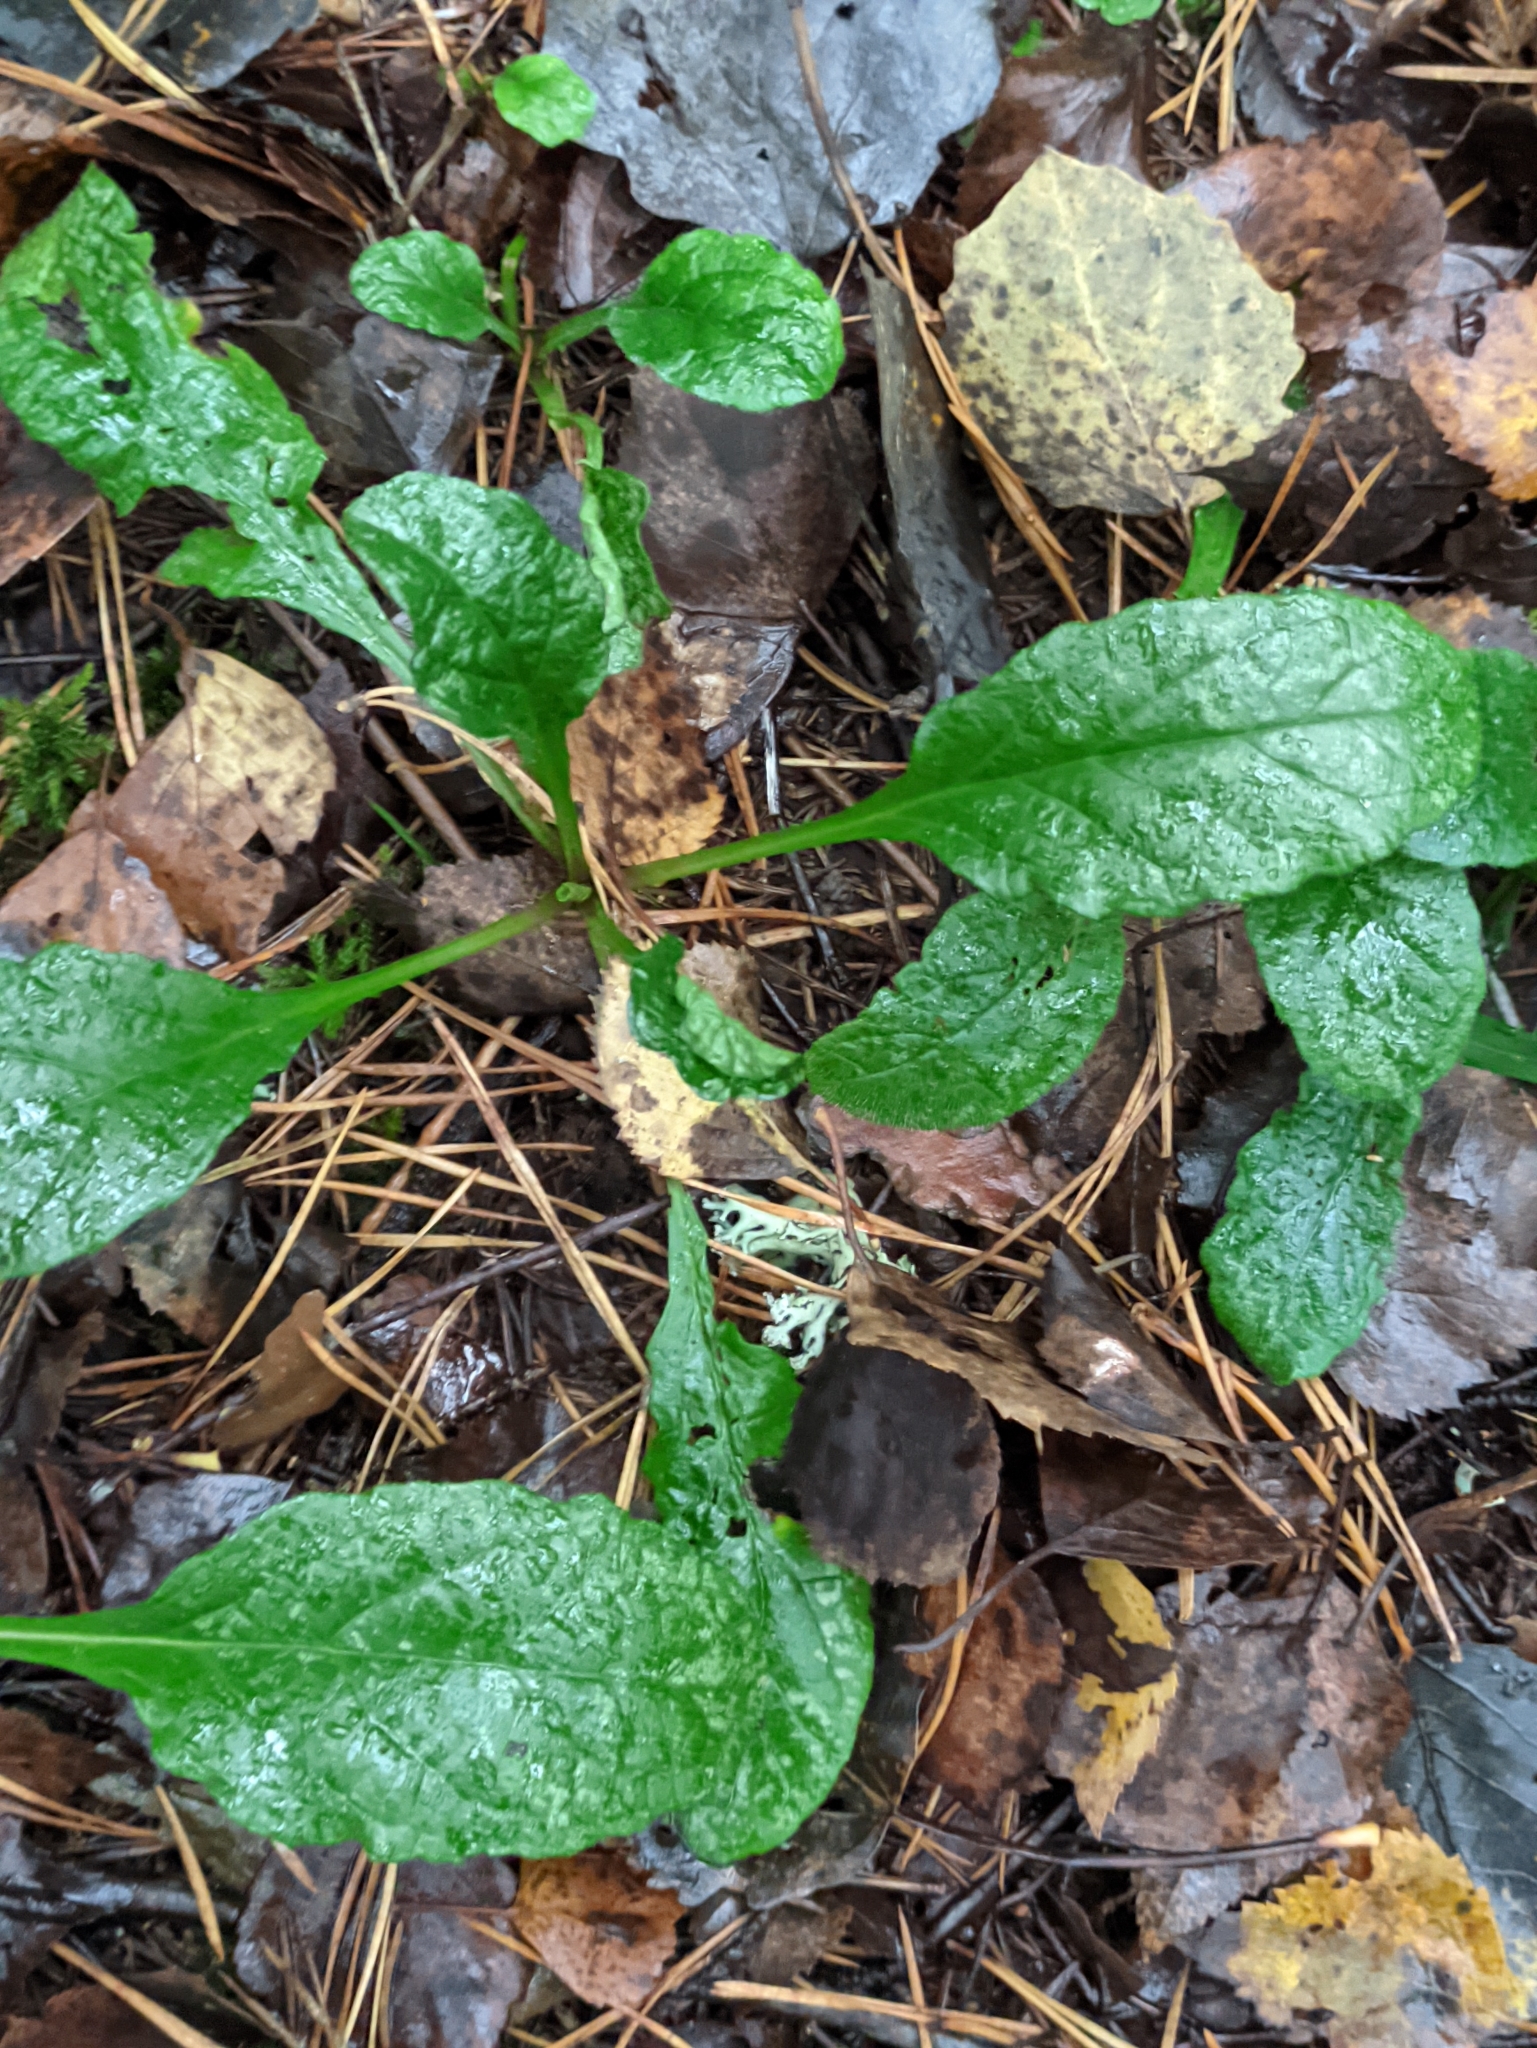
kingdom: Plantae
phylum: Tracheophyta
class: Magnoliopsida
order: Lamiales
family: Lamiaceae
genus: Ajuga
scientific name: Ajuga reptans
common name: Bugle
